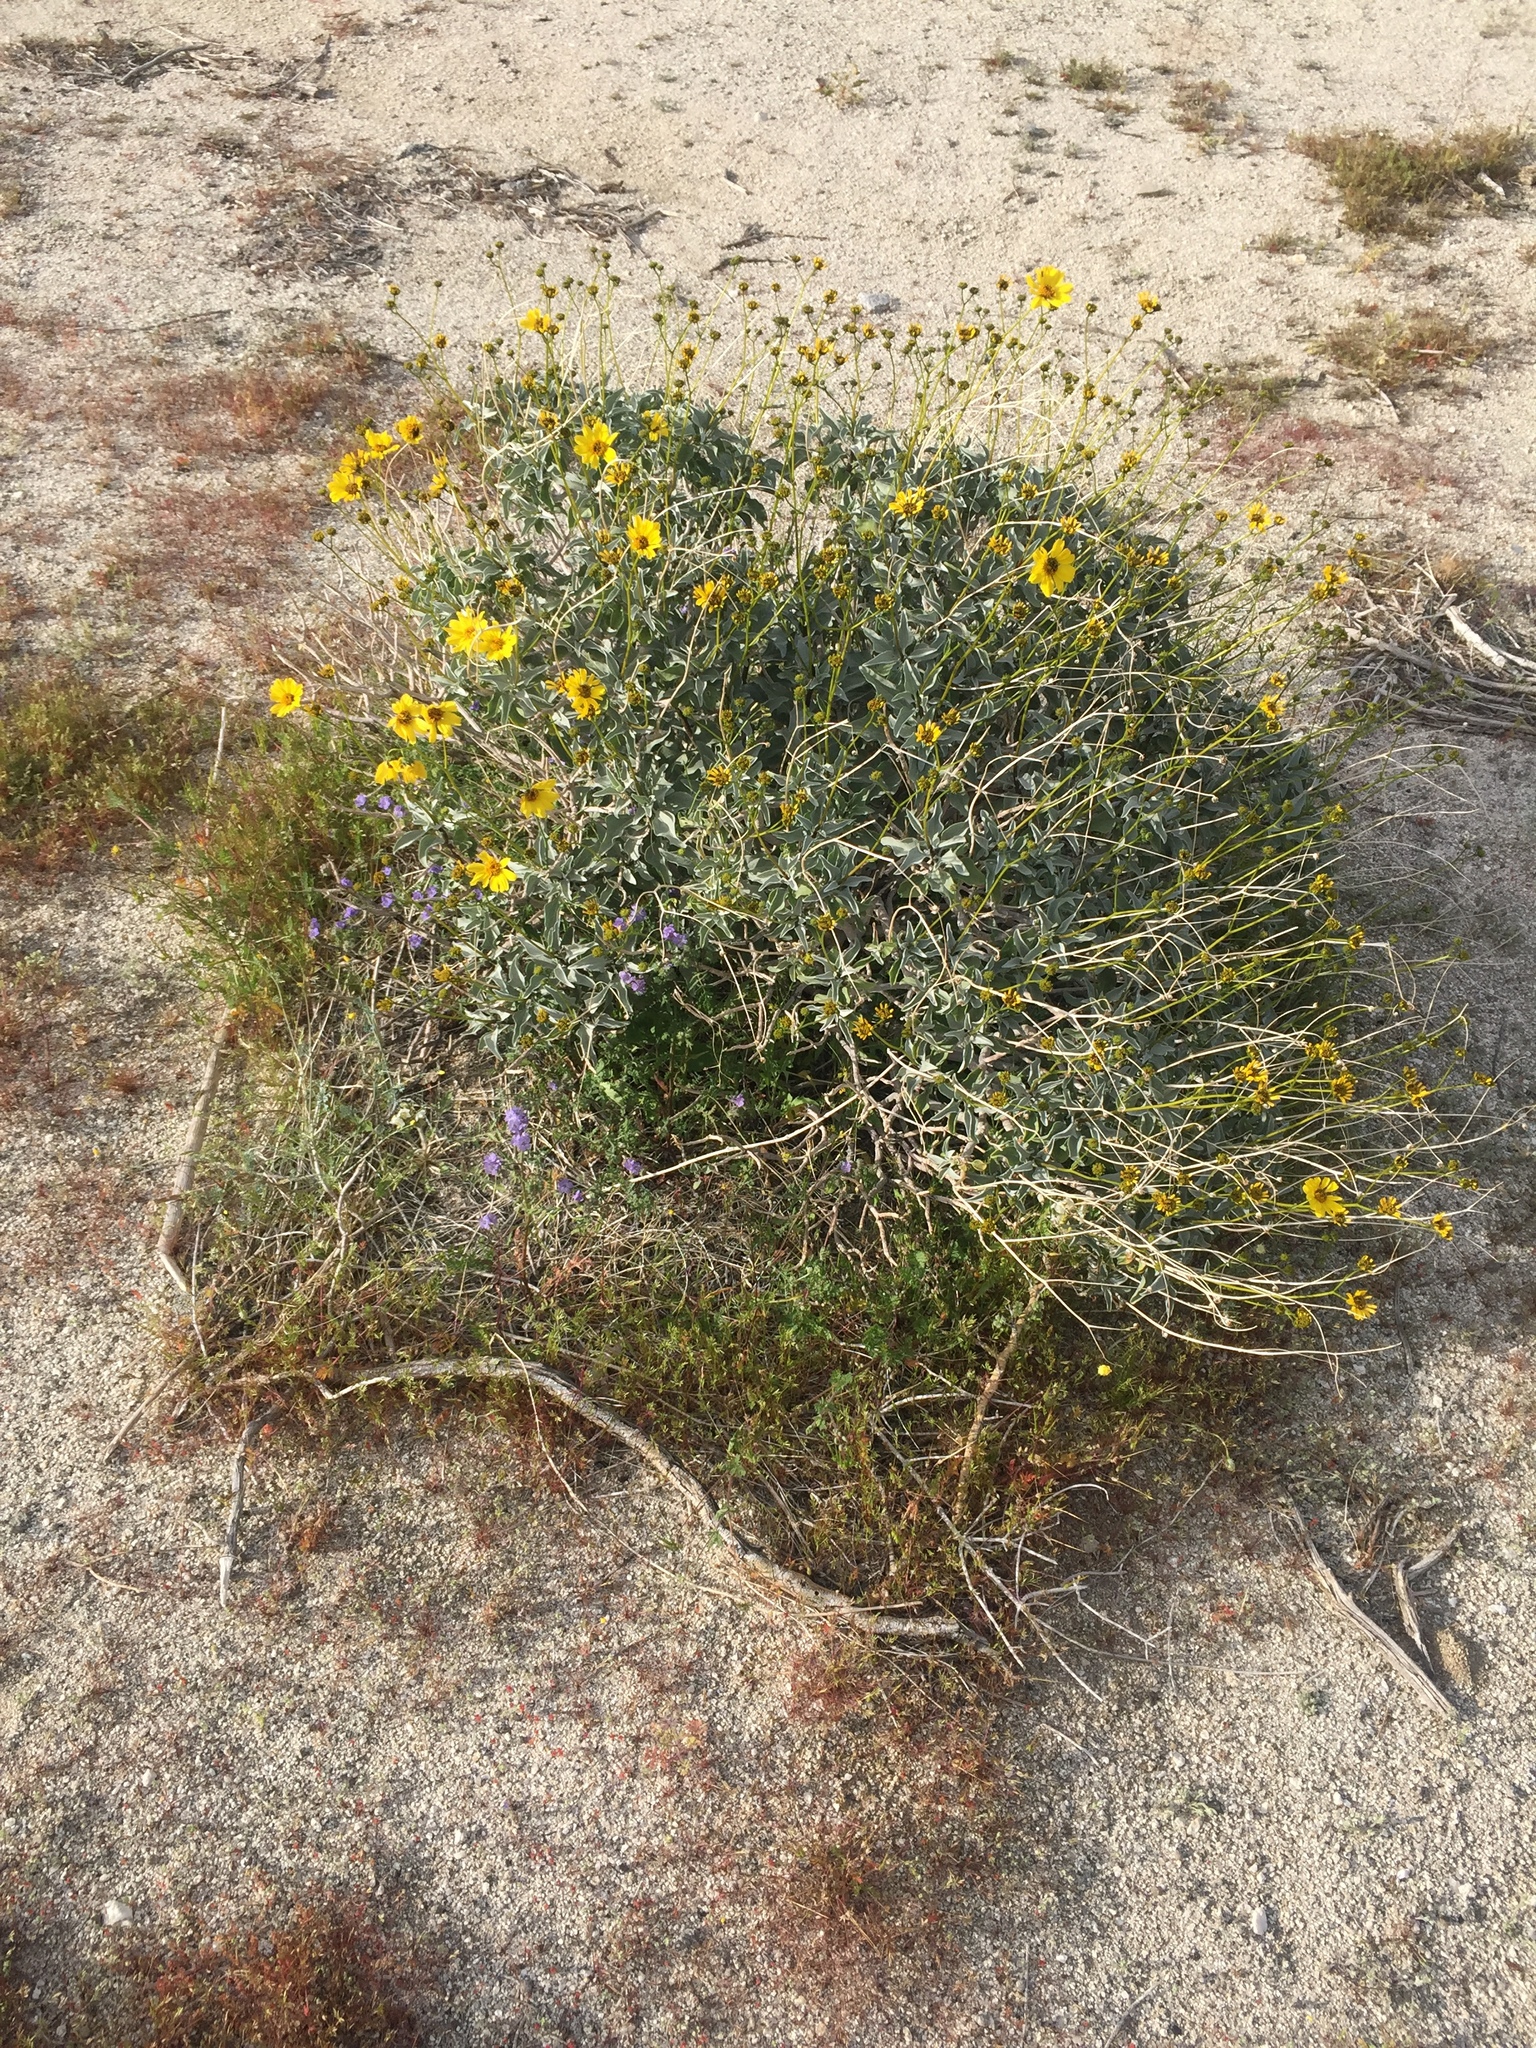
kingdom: Plantae
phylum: Tracheophyta
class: Magnoliopsida
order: Asterales
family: Asteraceae
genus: Encelia
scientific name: Encelia farinosa
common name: Brittlebush
